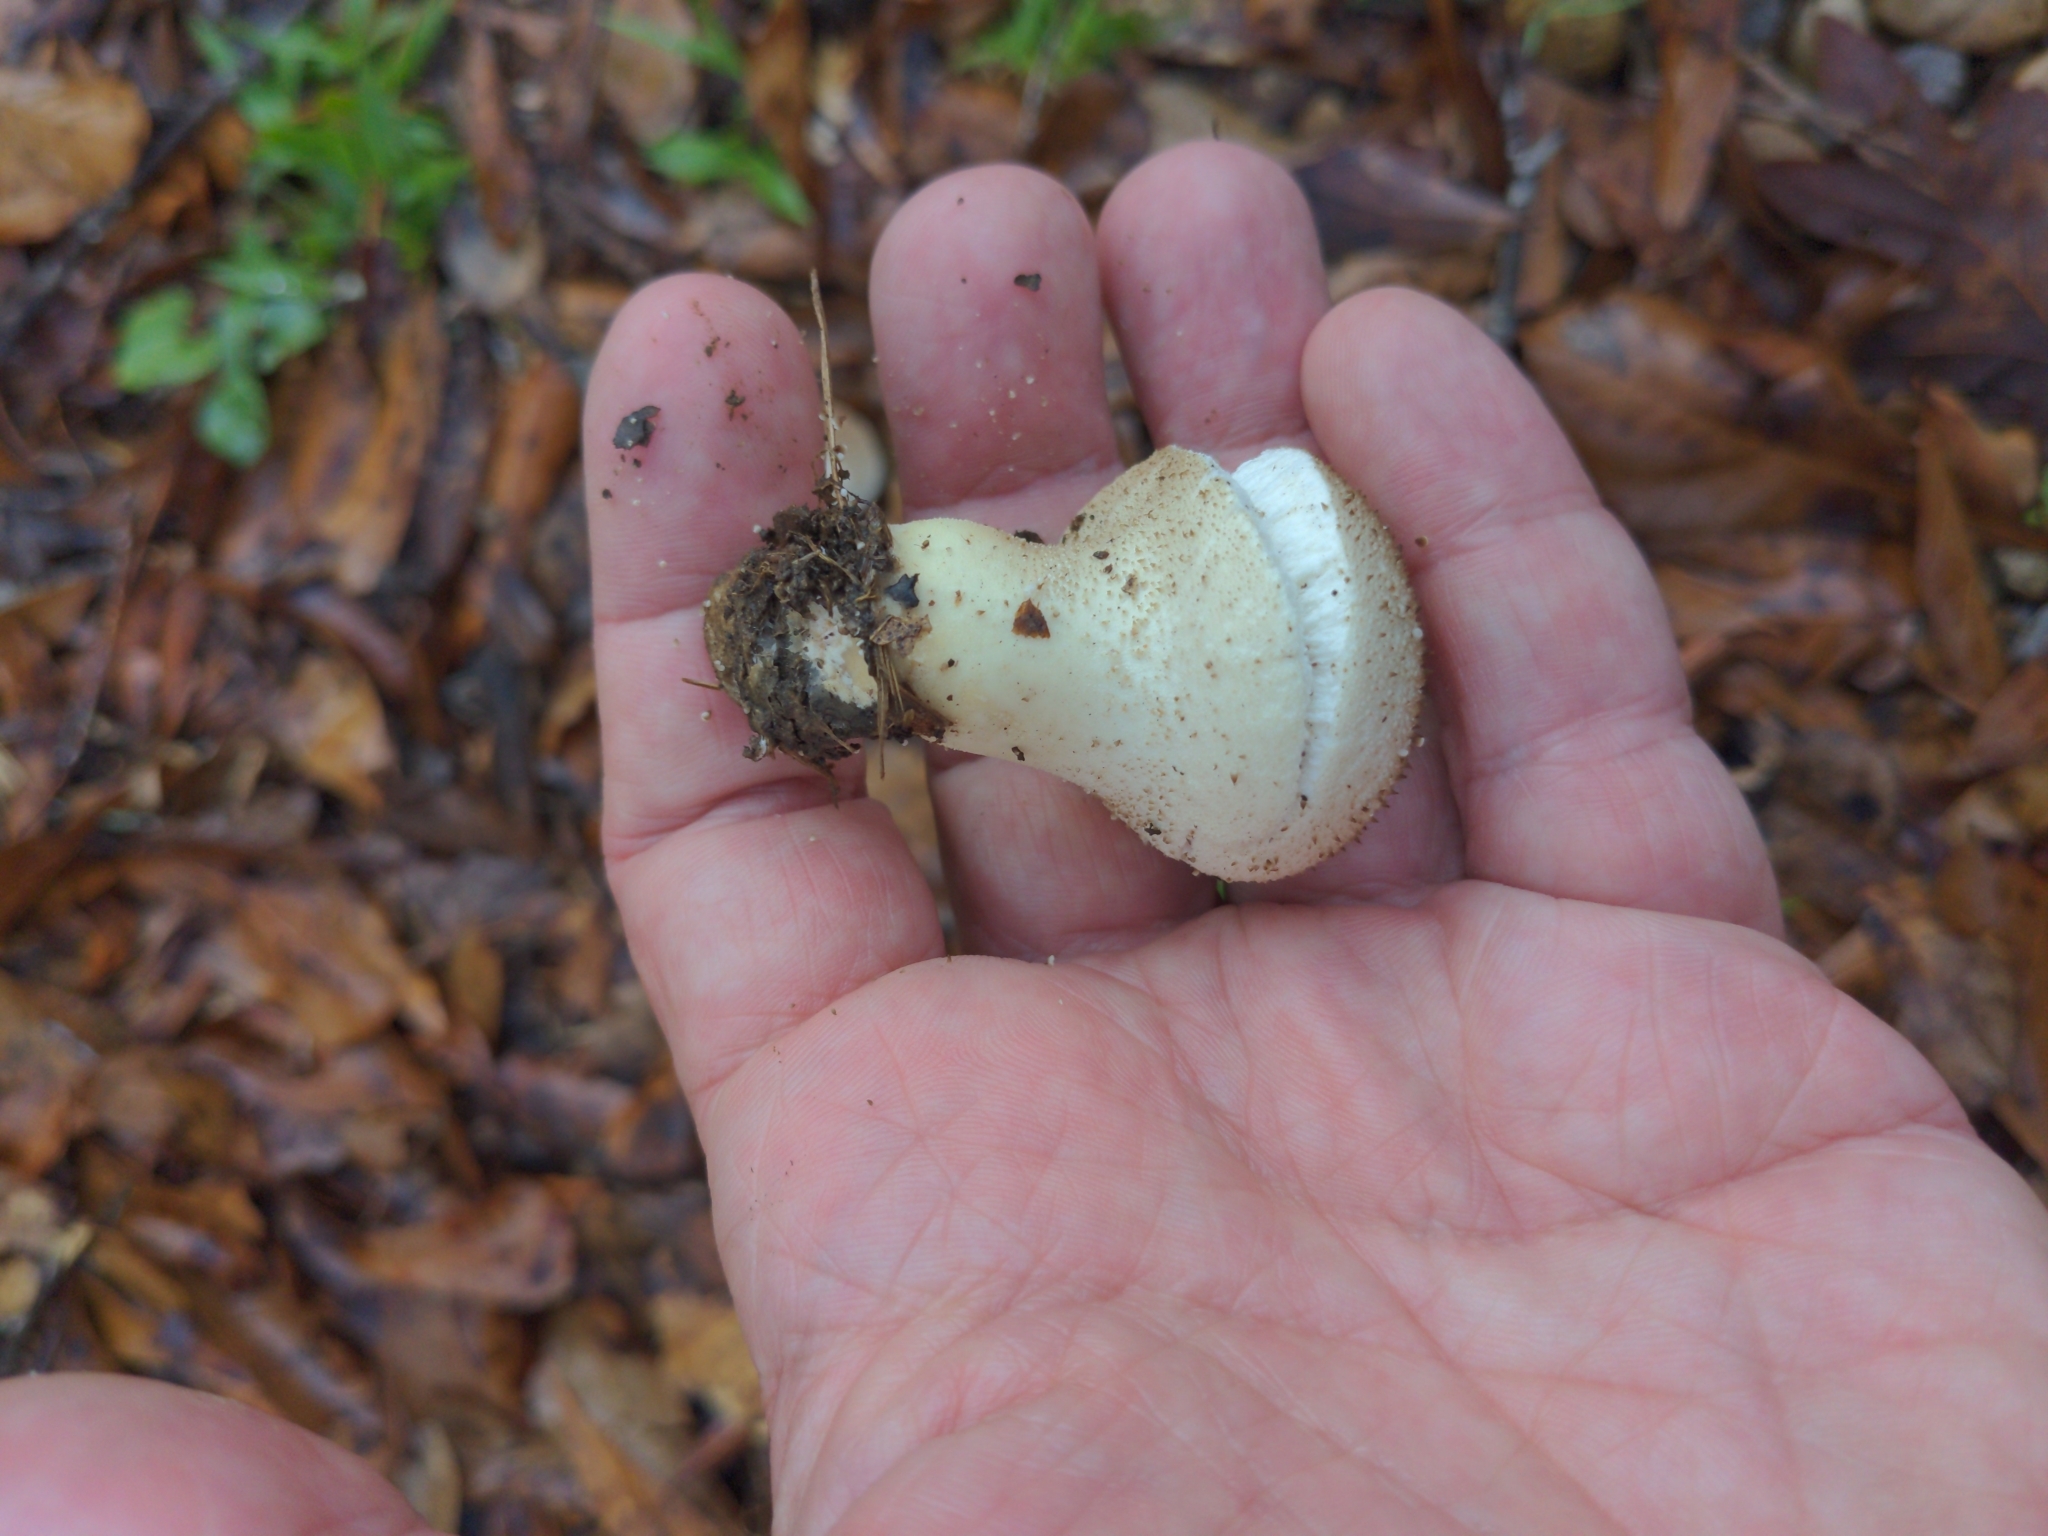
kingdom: Fungi
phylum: Basidiomycota
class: Agaricomycetes
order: Agaricales
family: Lycoperdaceae
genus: Lycoperdon
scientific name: Lycoperdon perlatum
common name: Common puffball
